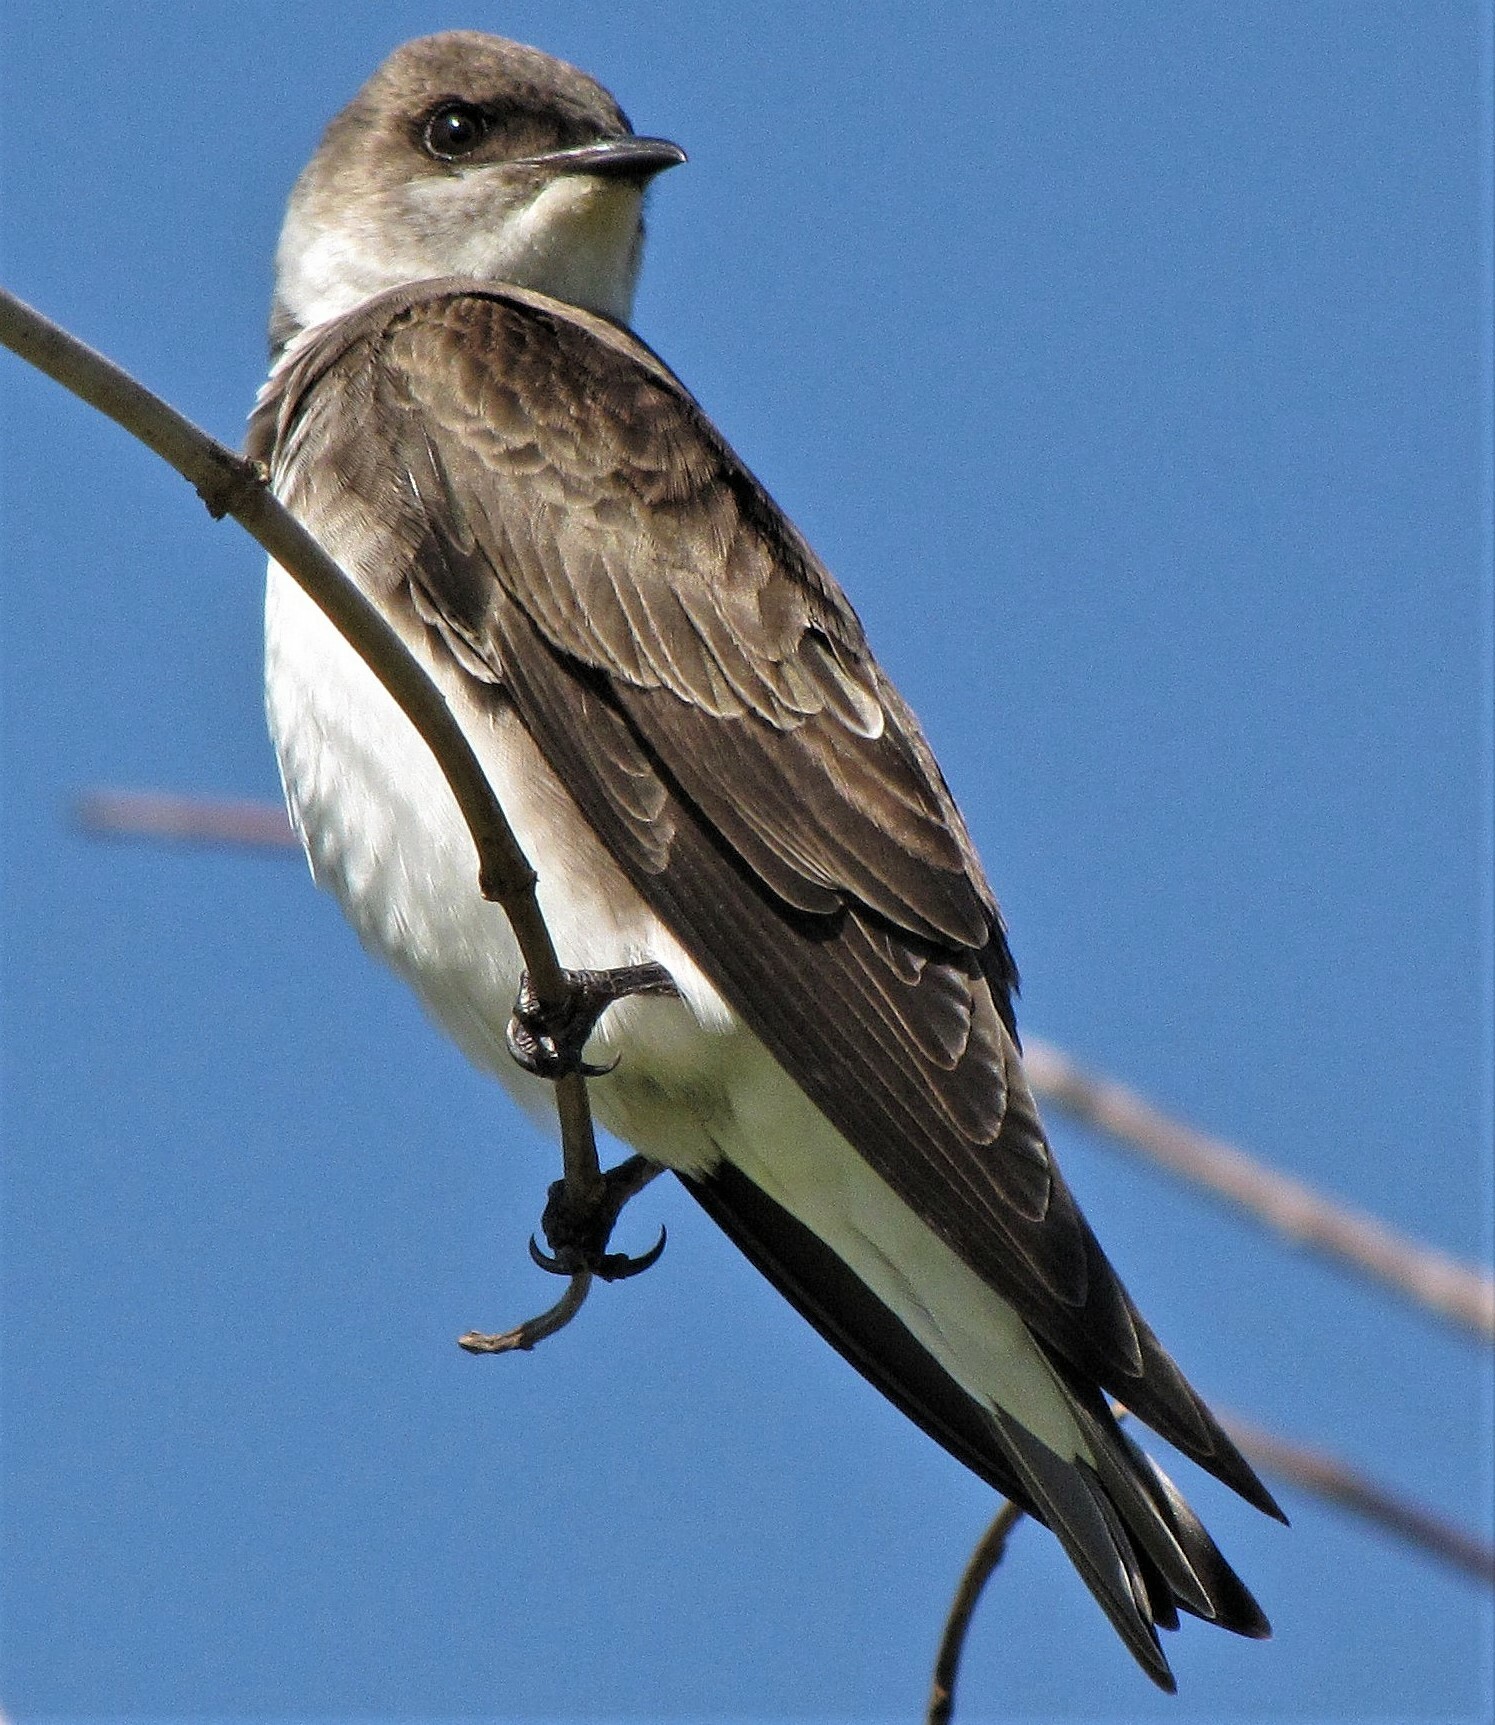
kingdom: Animalia
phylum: Chordata
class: Aves
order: Passeriformes
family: Hirundinidae
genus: Progne
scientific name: Progne tapera
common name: Brown-chested martin
